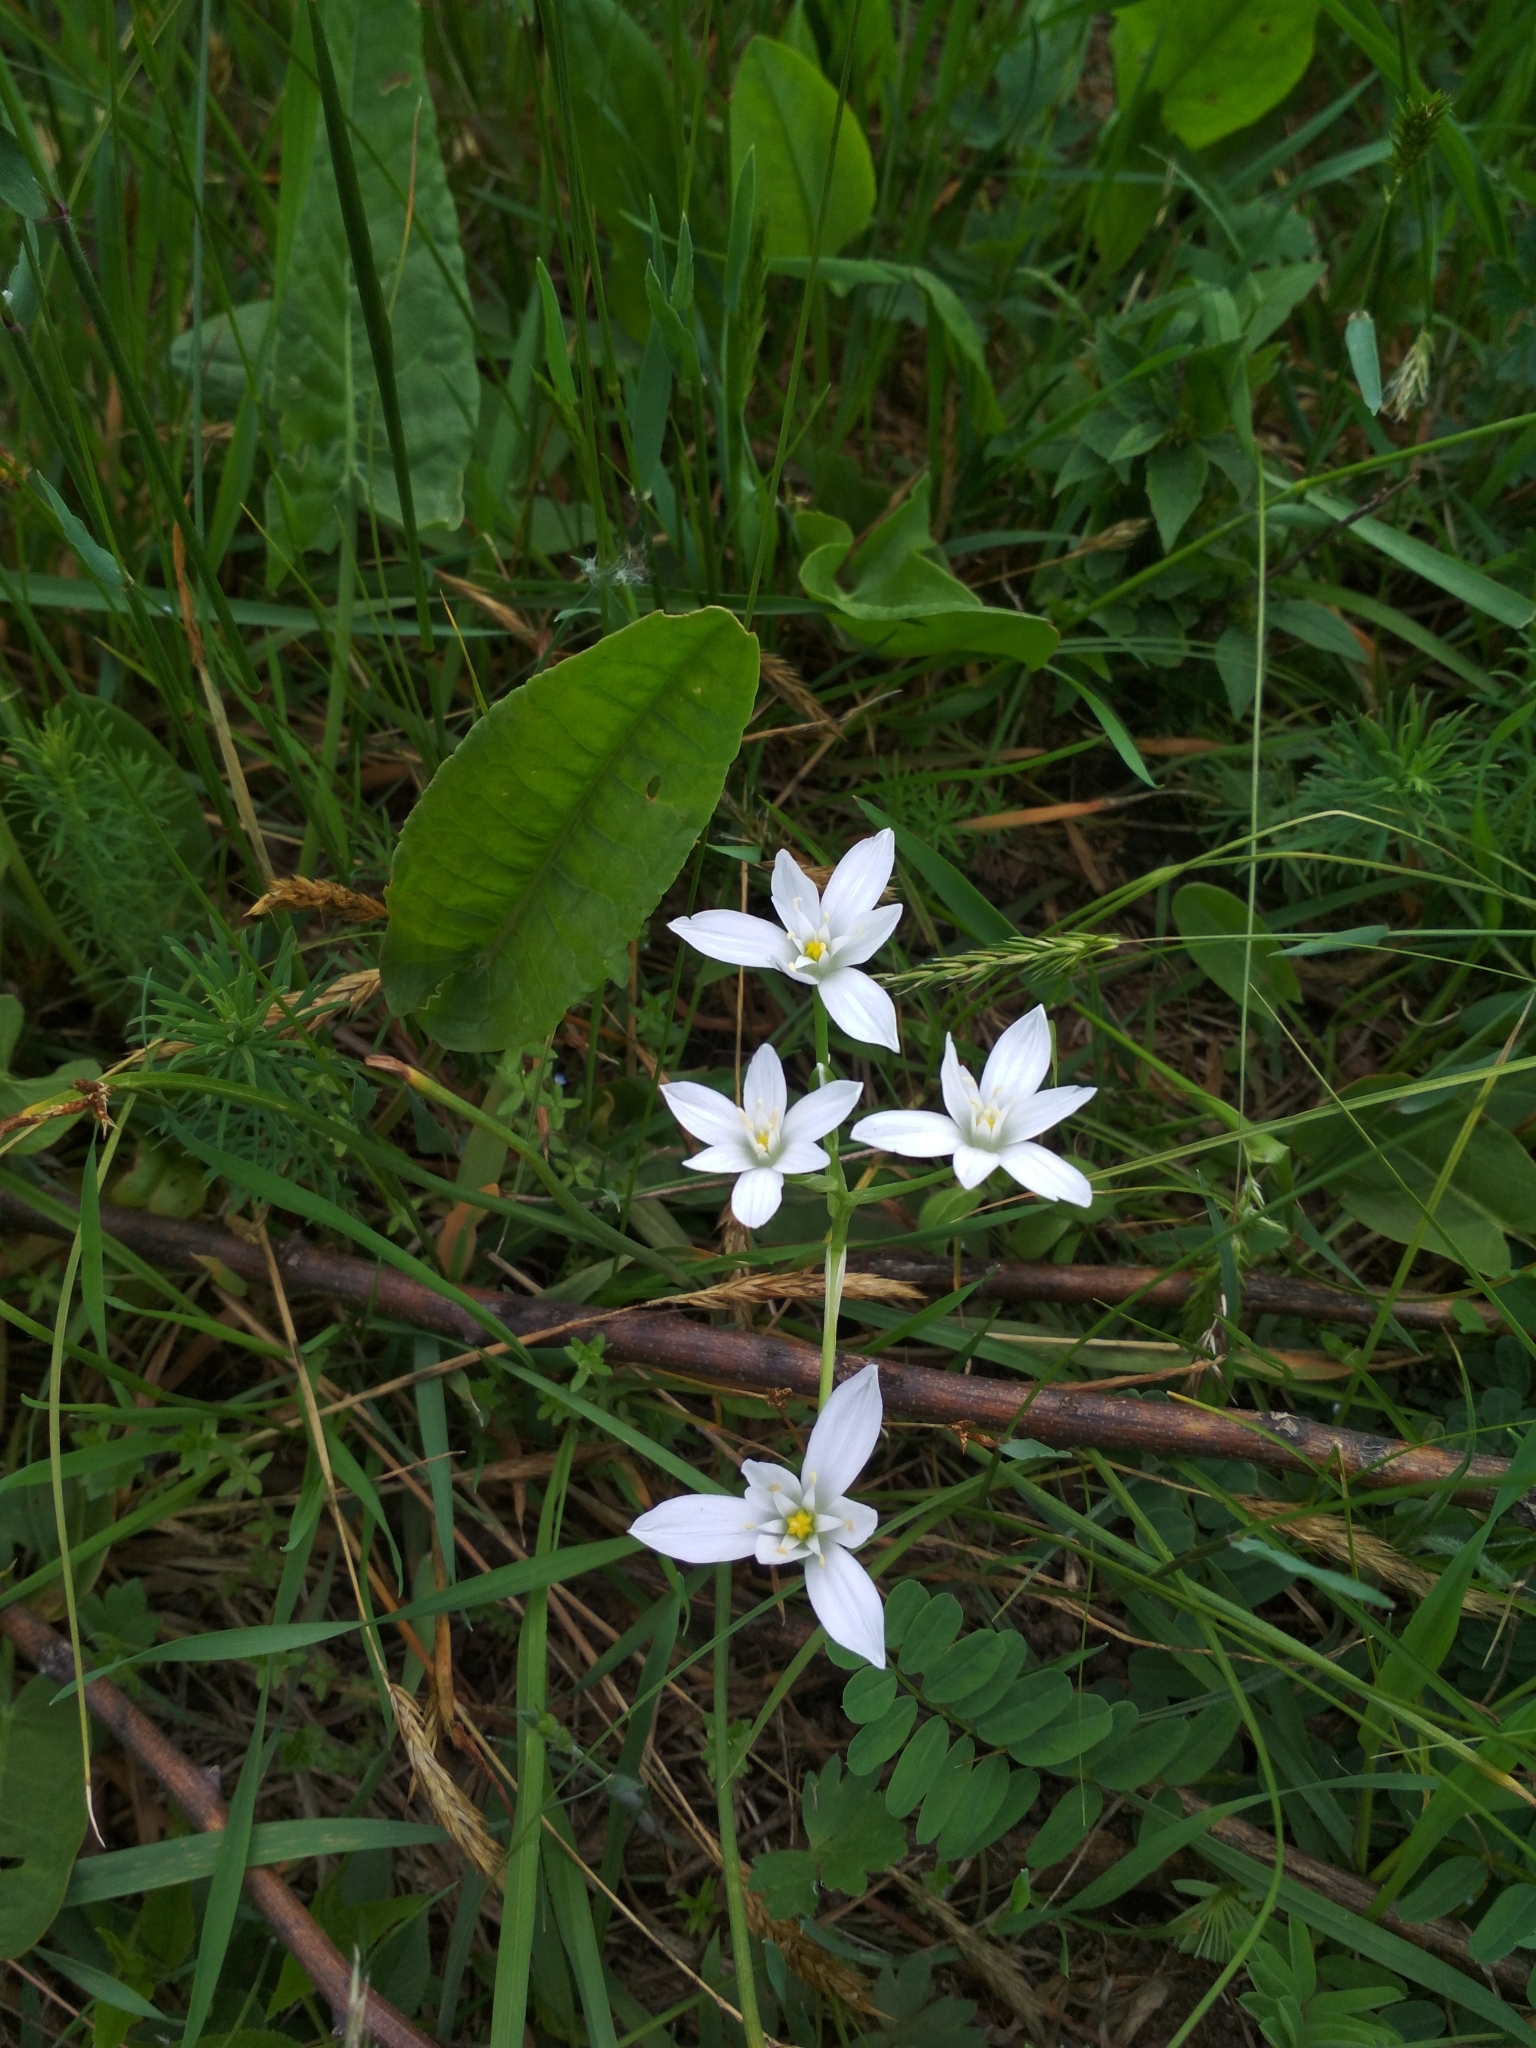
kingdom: Plantae
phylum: Tracheophyta
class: Liliopsida
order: Asparagales
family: Asparagaceae
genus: Ornithogalum
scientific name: Ornithogalum divergens
